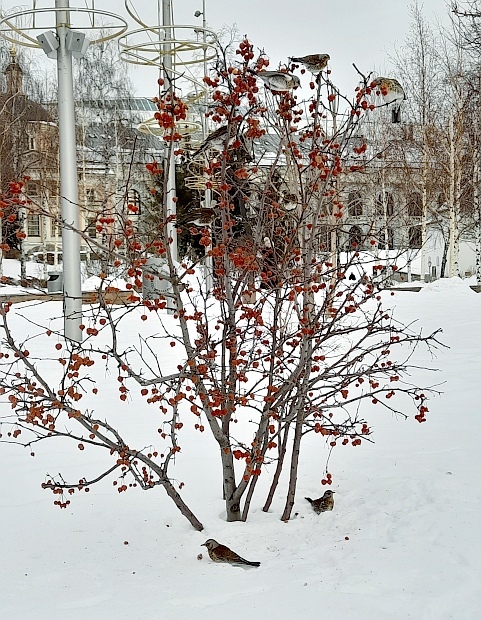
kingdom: Animalia
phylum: Chordata
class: Aves
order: Passeriformes
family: Turdidae
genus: Turdus
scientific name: Turdus pilaris
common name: Fieldfare
